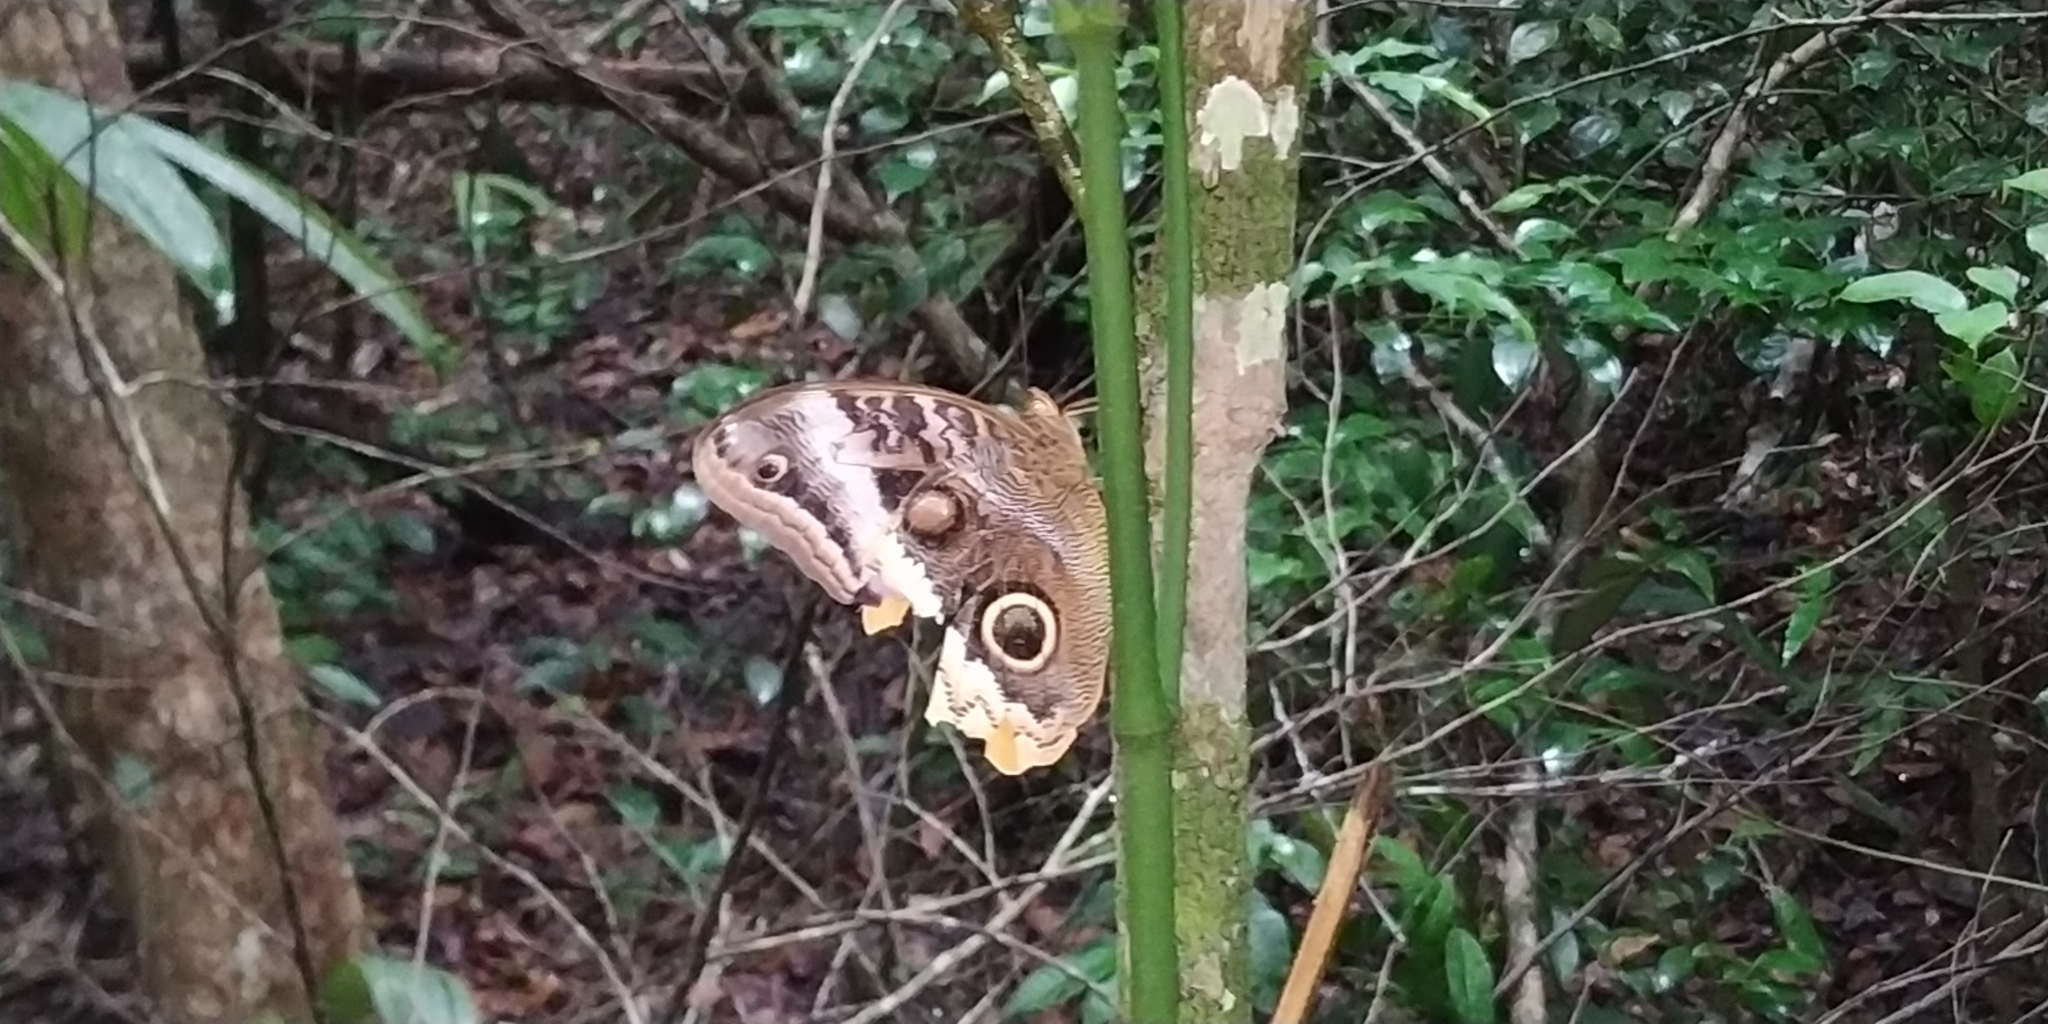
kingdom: Animalia
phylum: Arthropoda
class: Insecta
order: Lepidoptera
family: Nymphalidae
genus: Caligo
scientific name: Caligo uranus
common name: Gold-edged owl-butterfly
